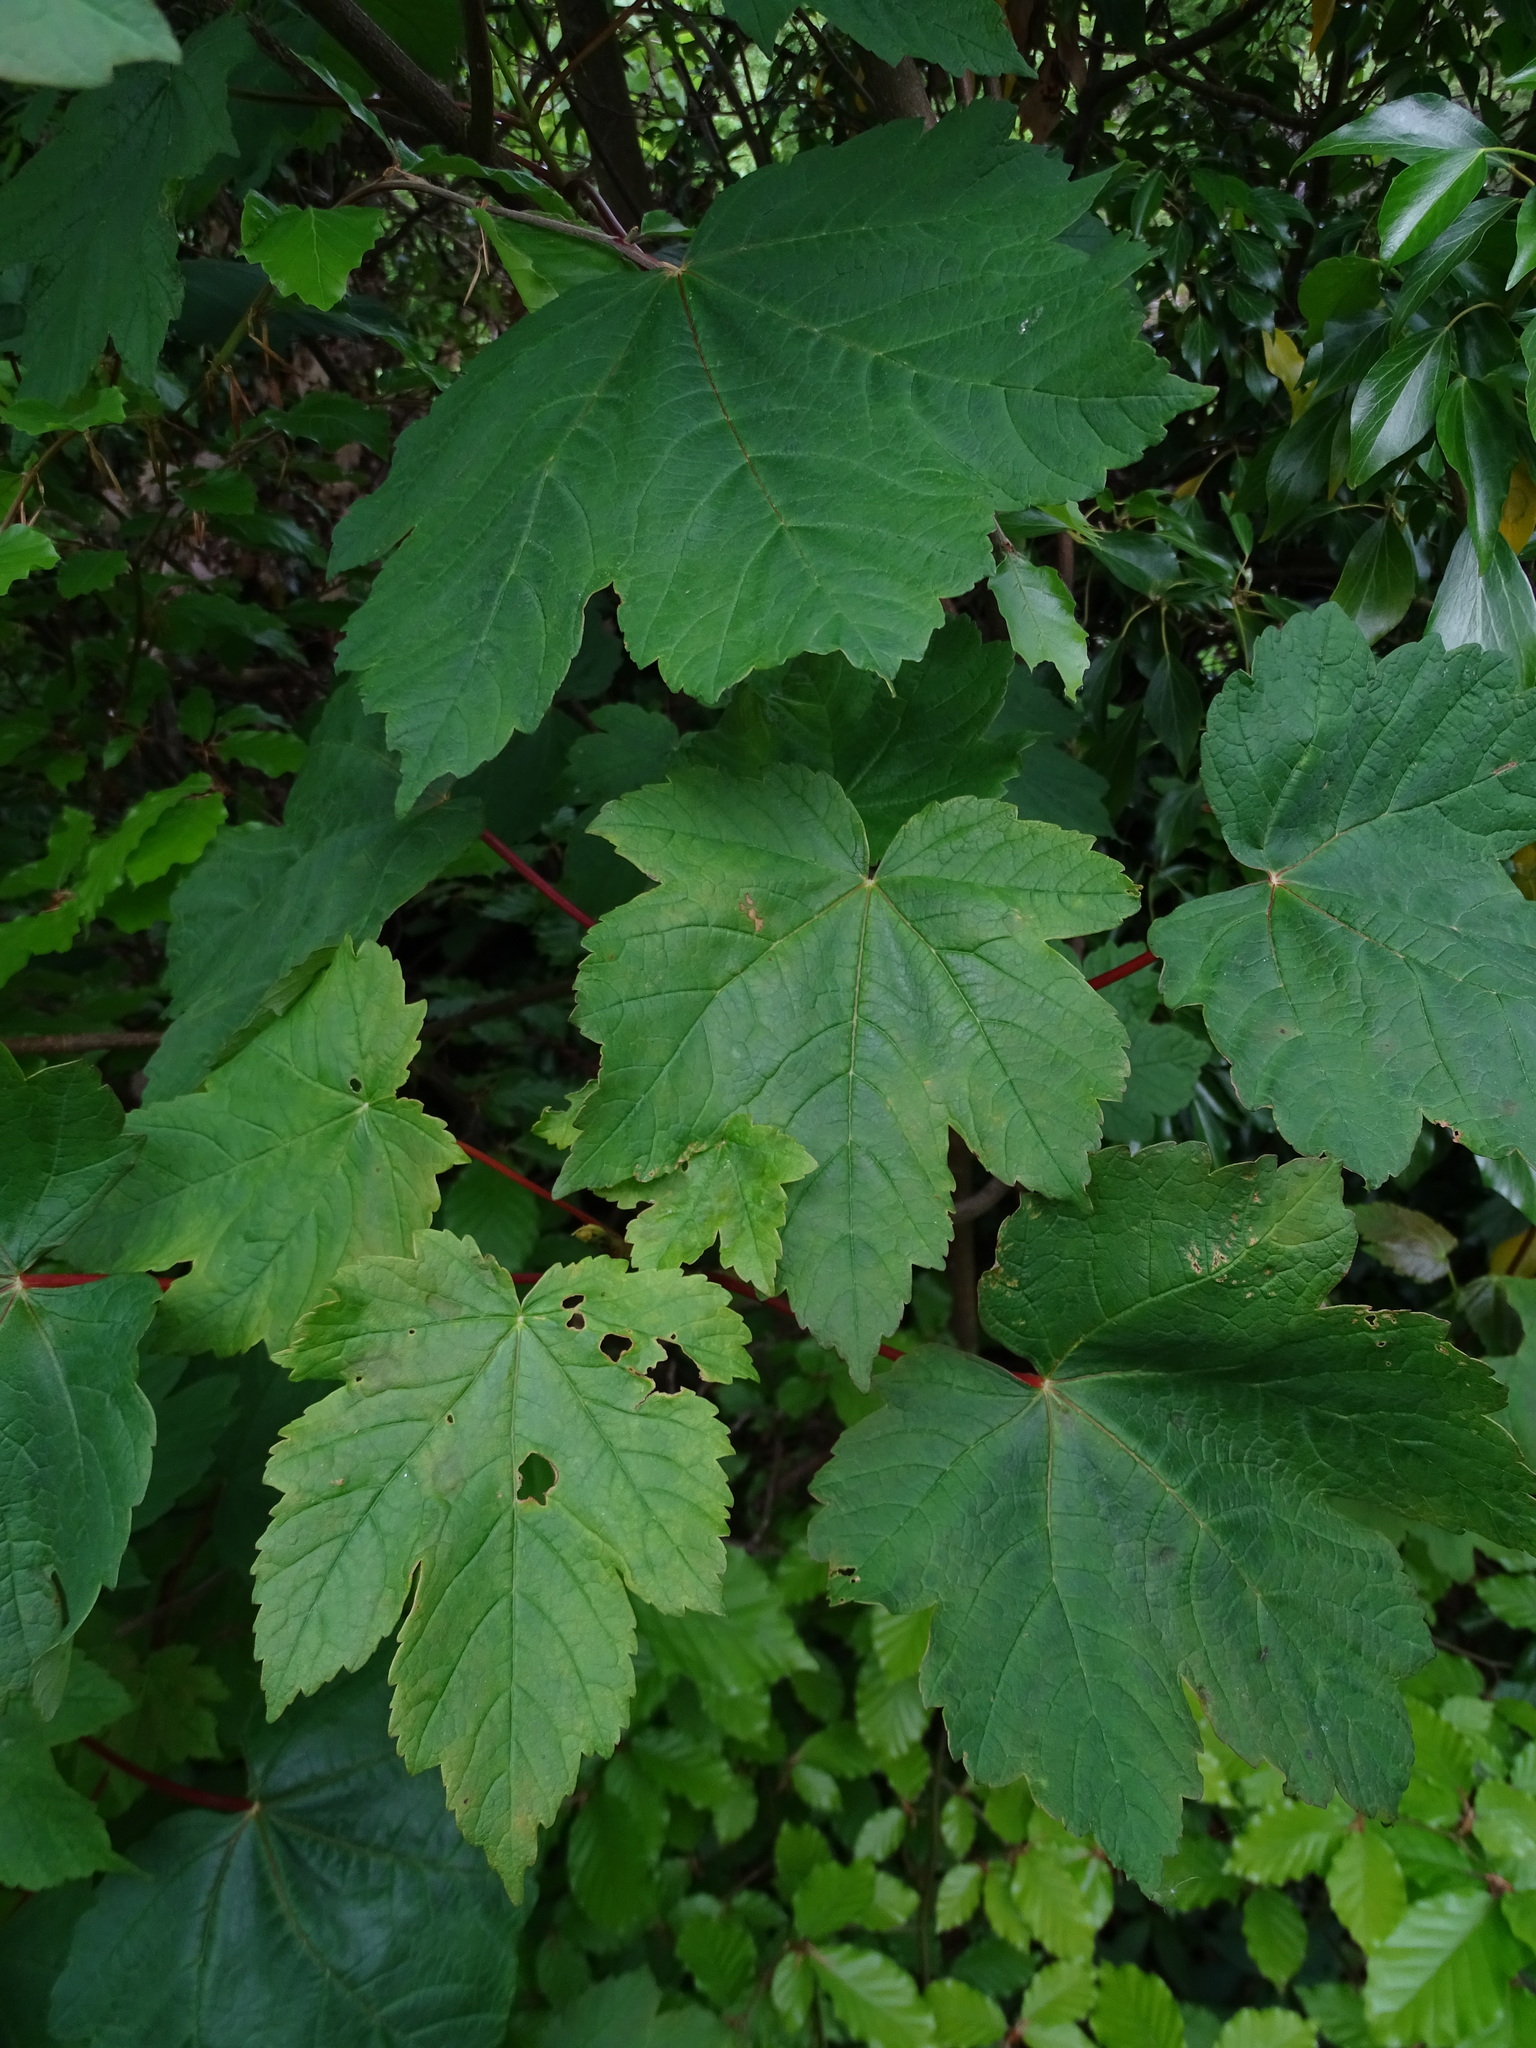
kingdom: Plantae
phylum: Tracheophyta
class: Magnoliopsida
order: Sapindales
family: Sapindaceae
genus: Acer
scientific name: Acer pseudoplatanus
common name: Sycamore
